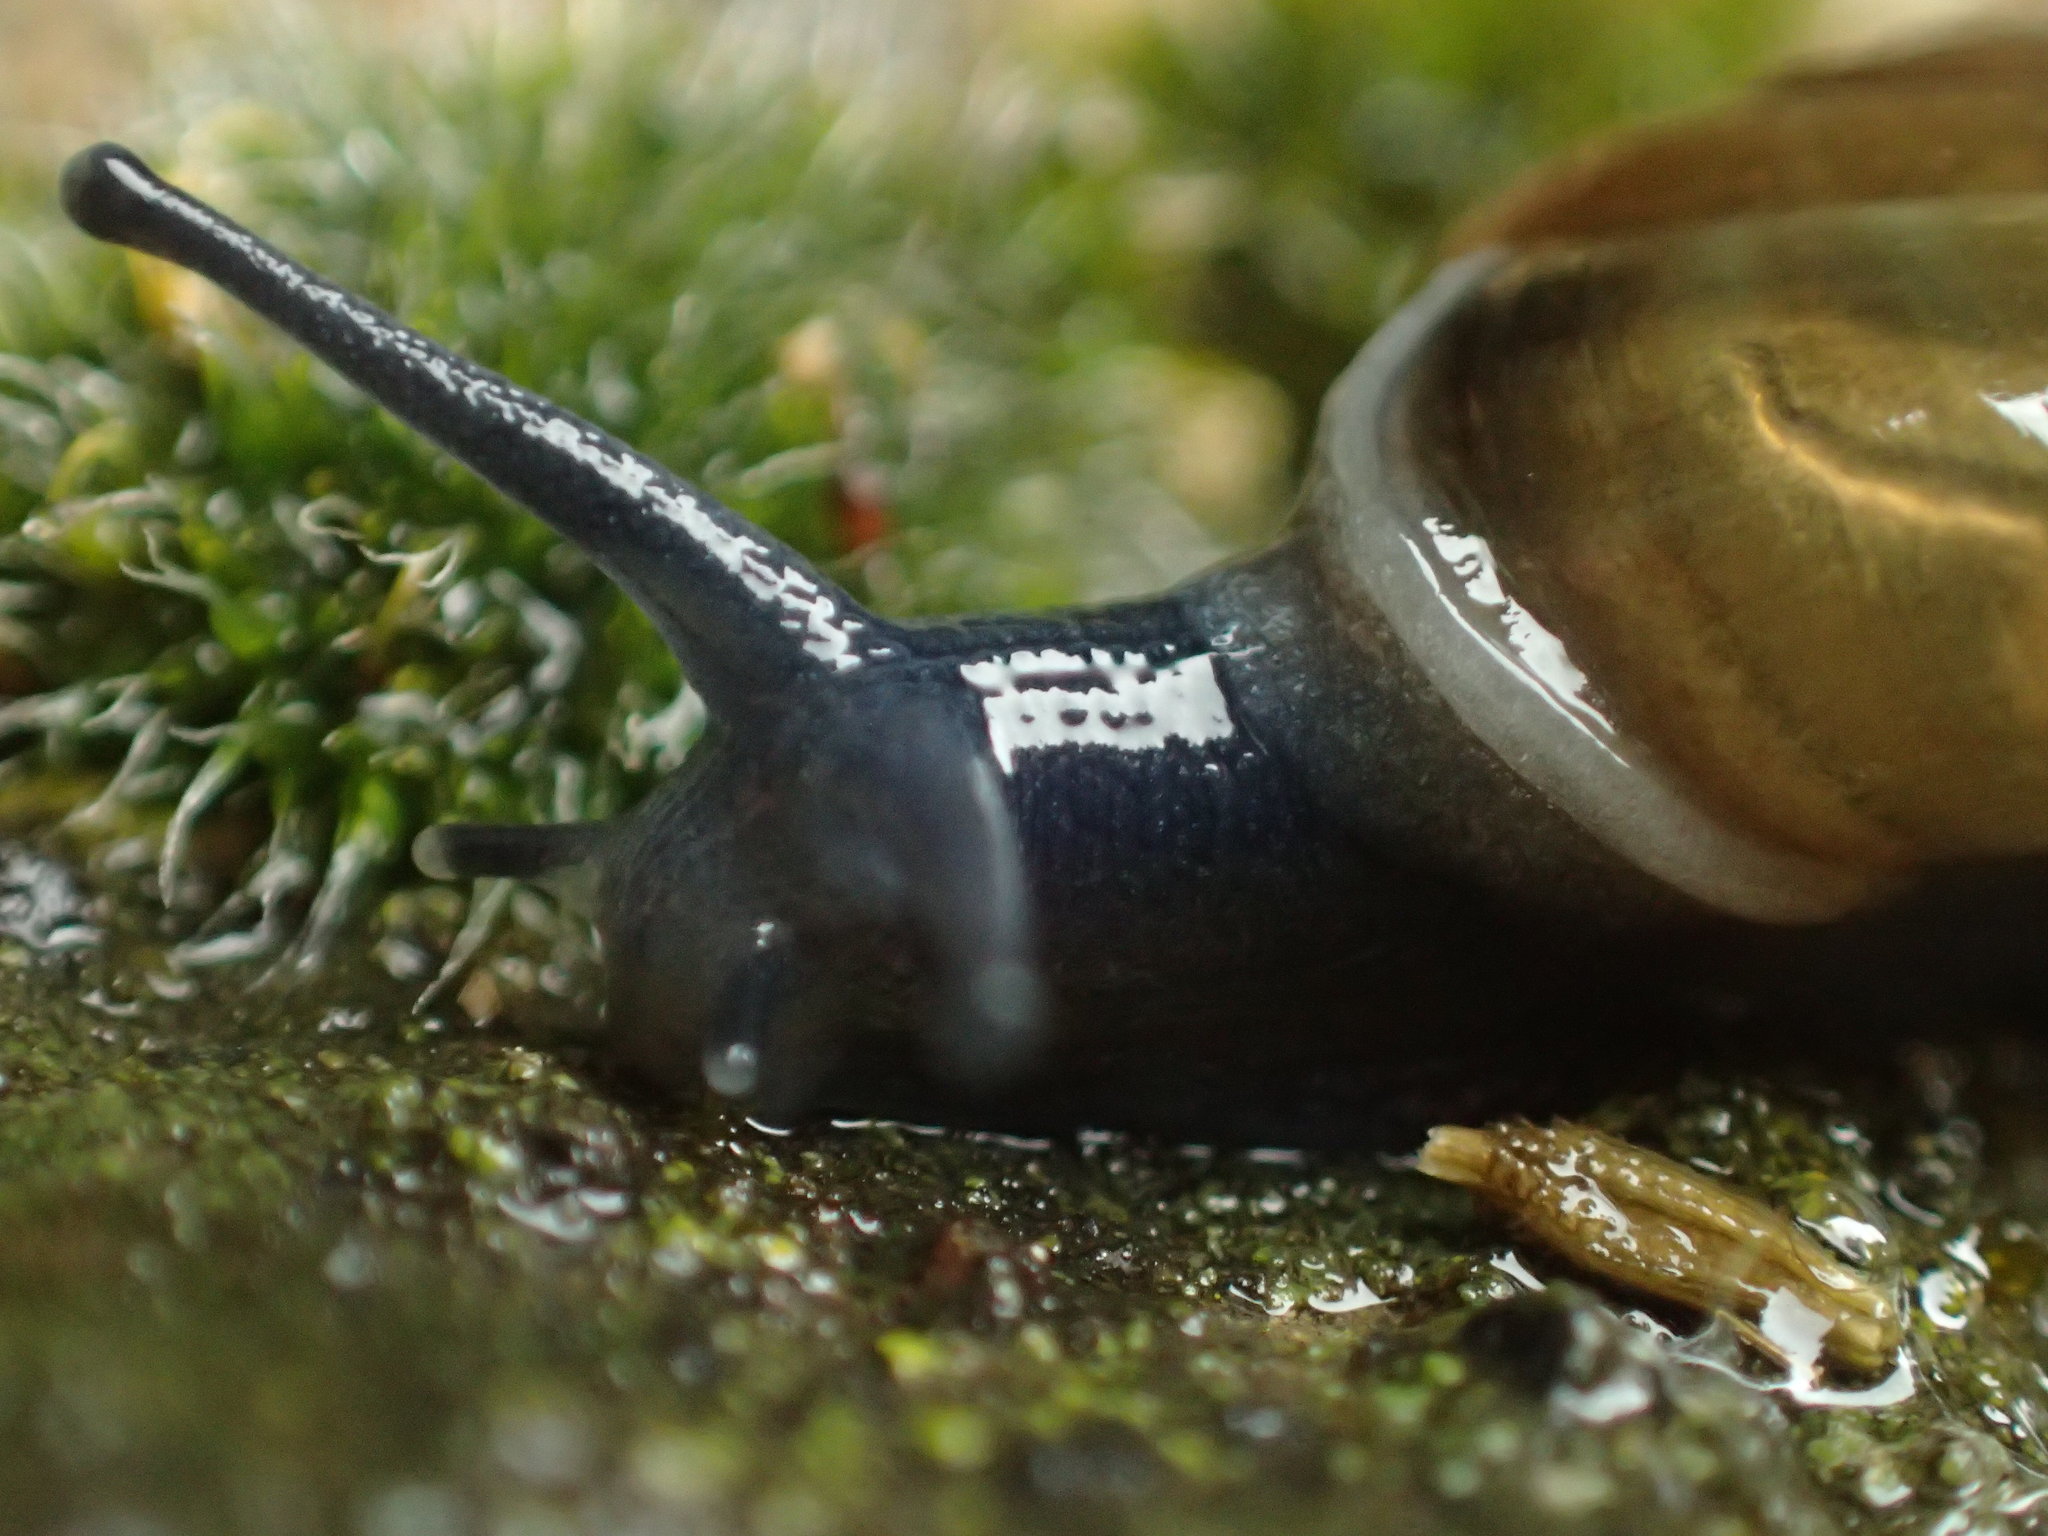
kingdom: Animalia
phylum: Mollusca
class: Gastropoda
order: Stylommatophora
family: Oxychilidae
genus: Morlina
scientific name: Morlina glabra
